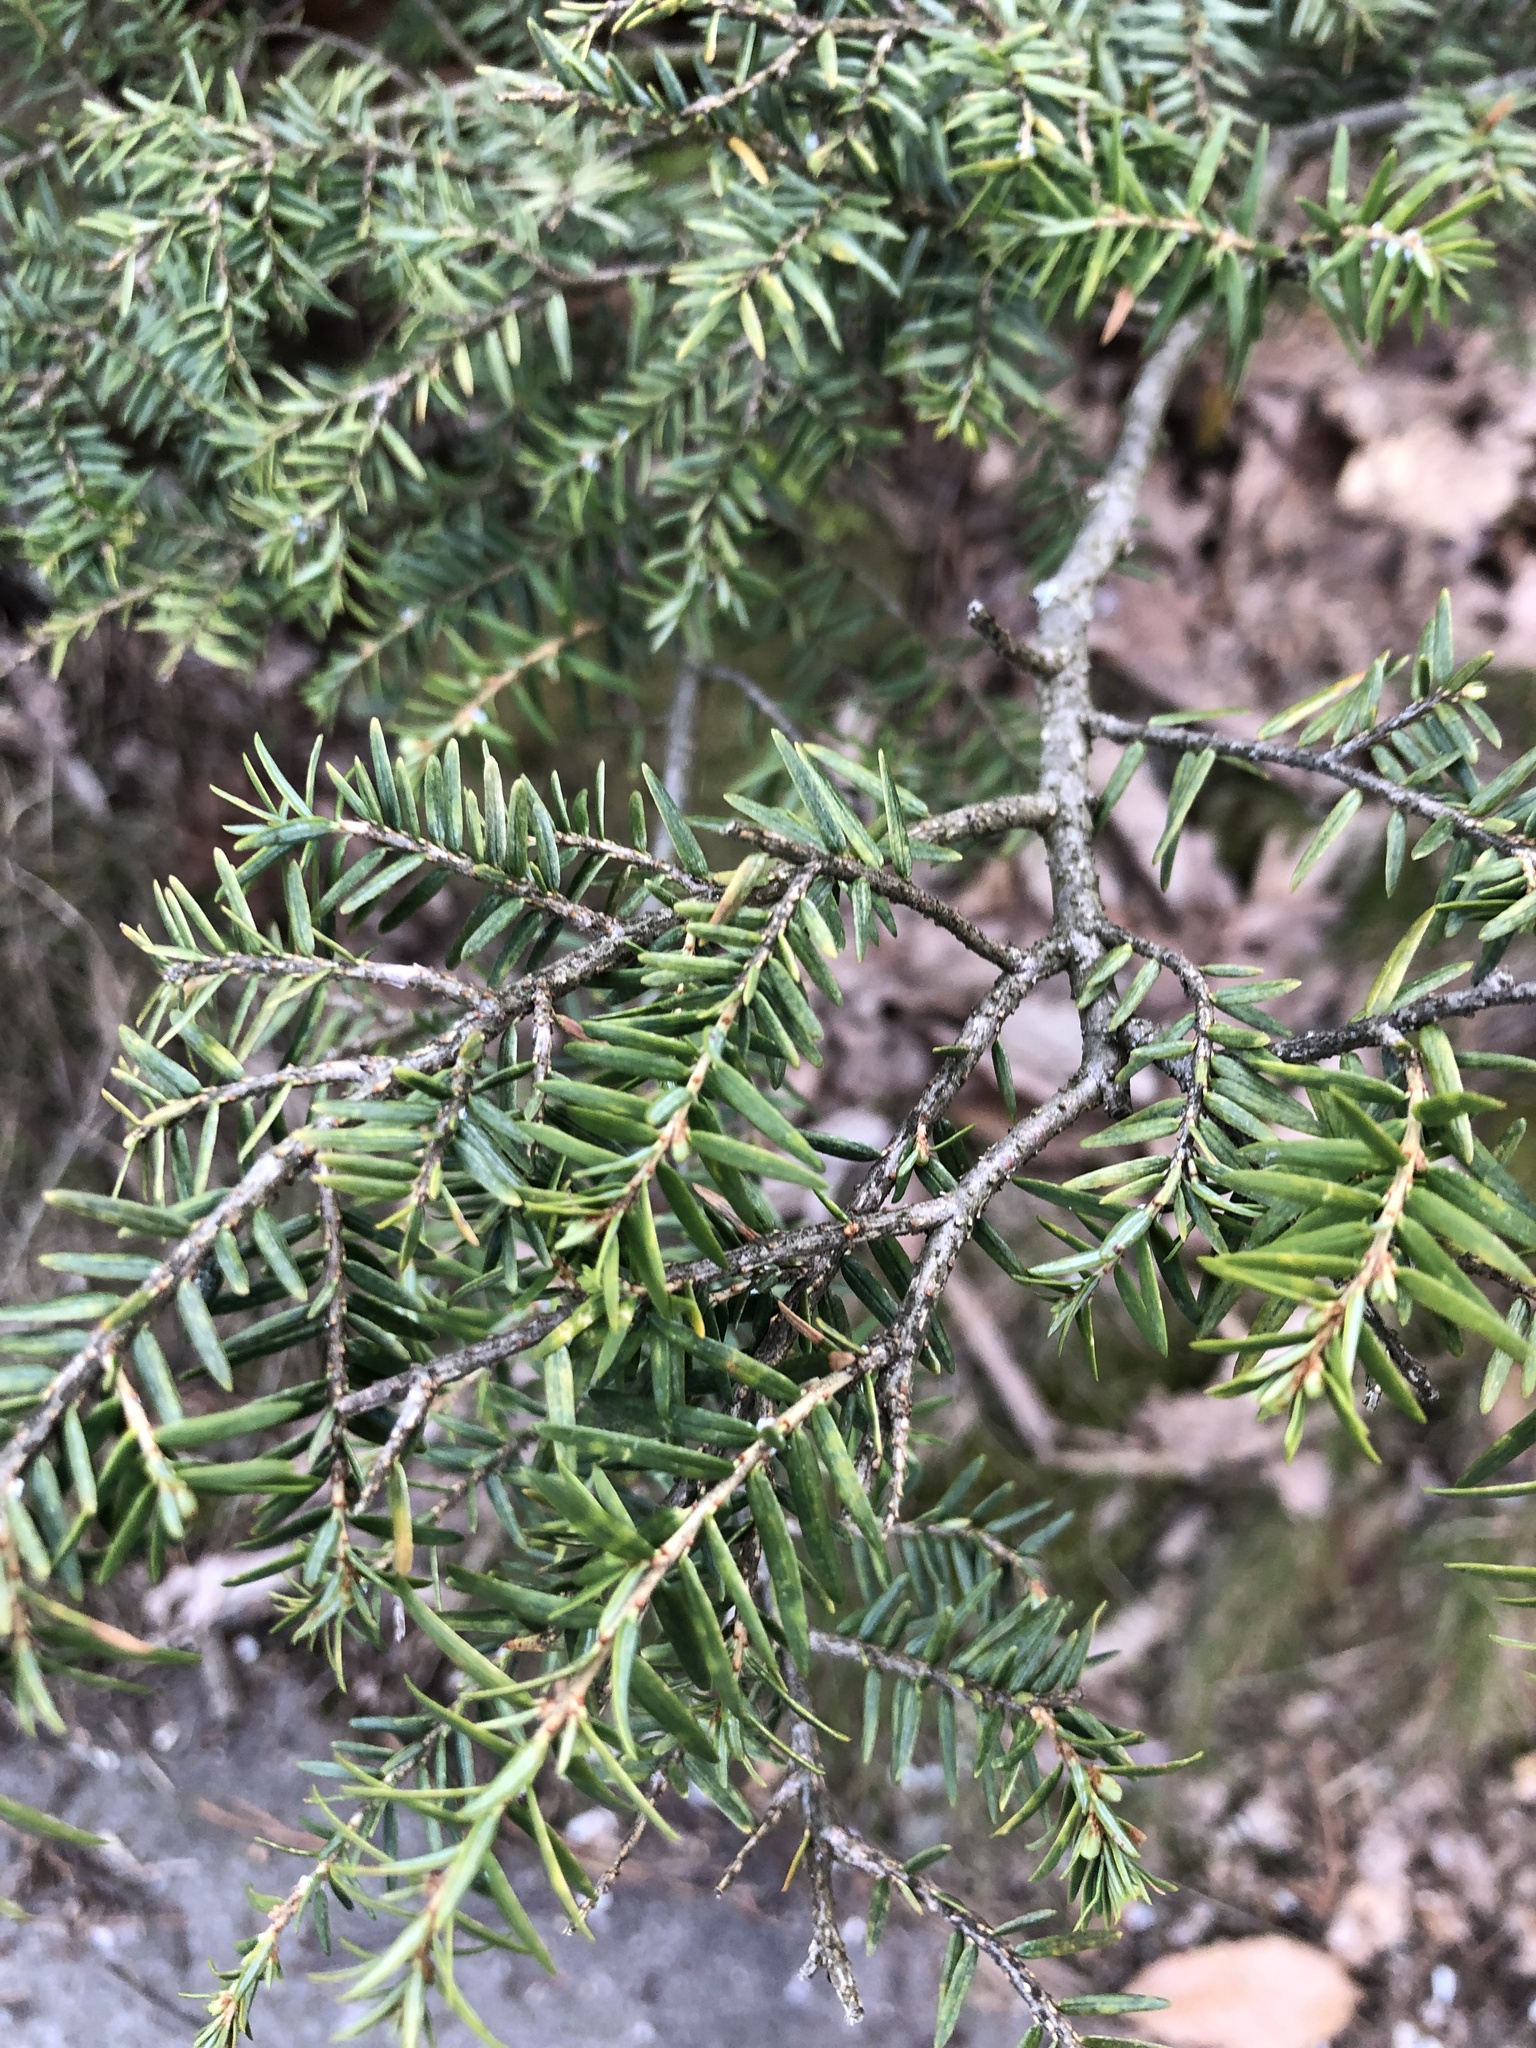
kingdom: Plantae
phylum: Tracheophyta
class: Pinopsida
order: Pinales
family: Pinaceae
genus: Tsuga
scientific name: Tsuga canadensis
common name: Eastern hemlock
